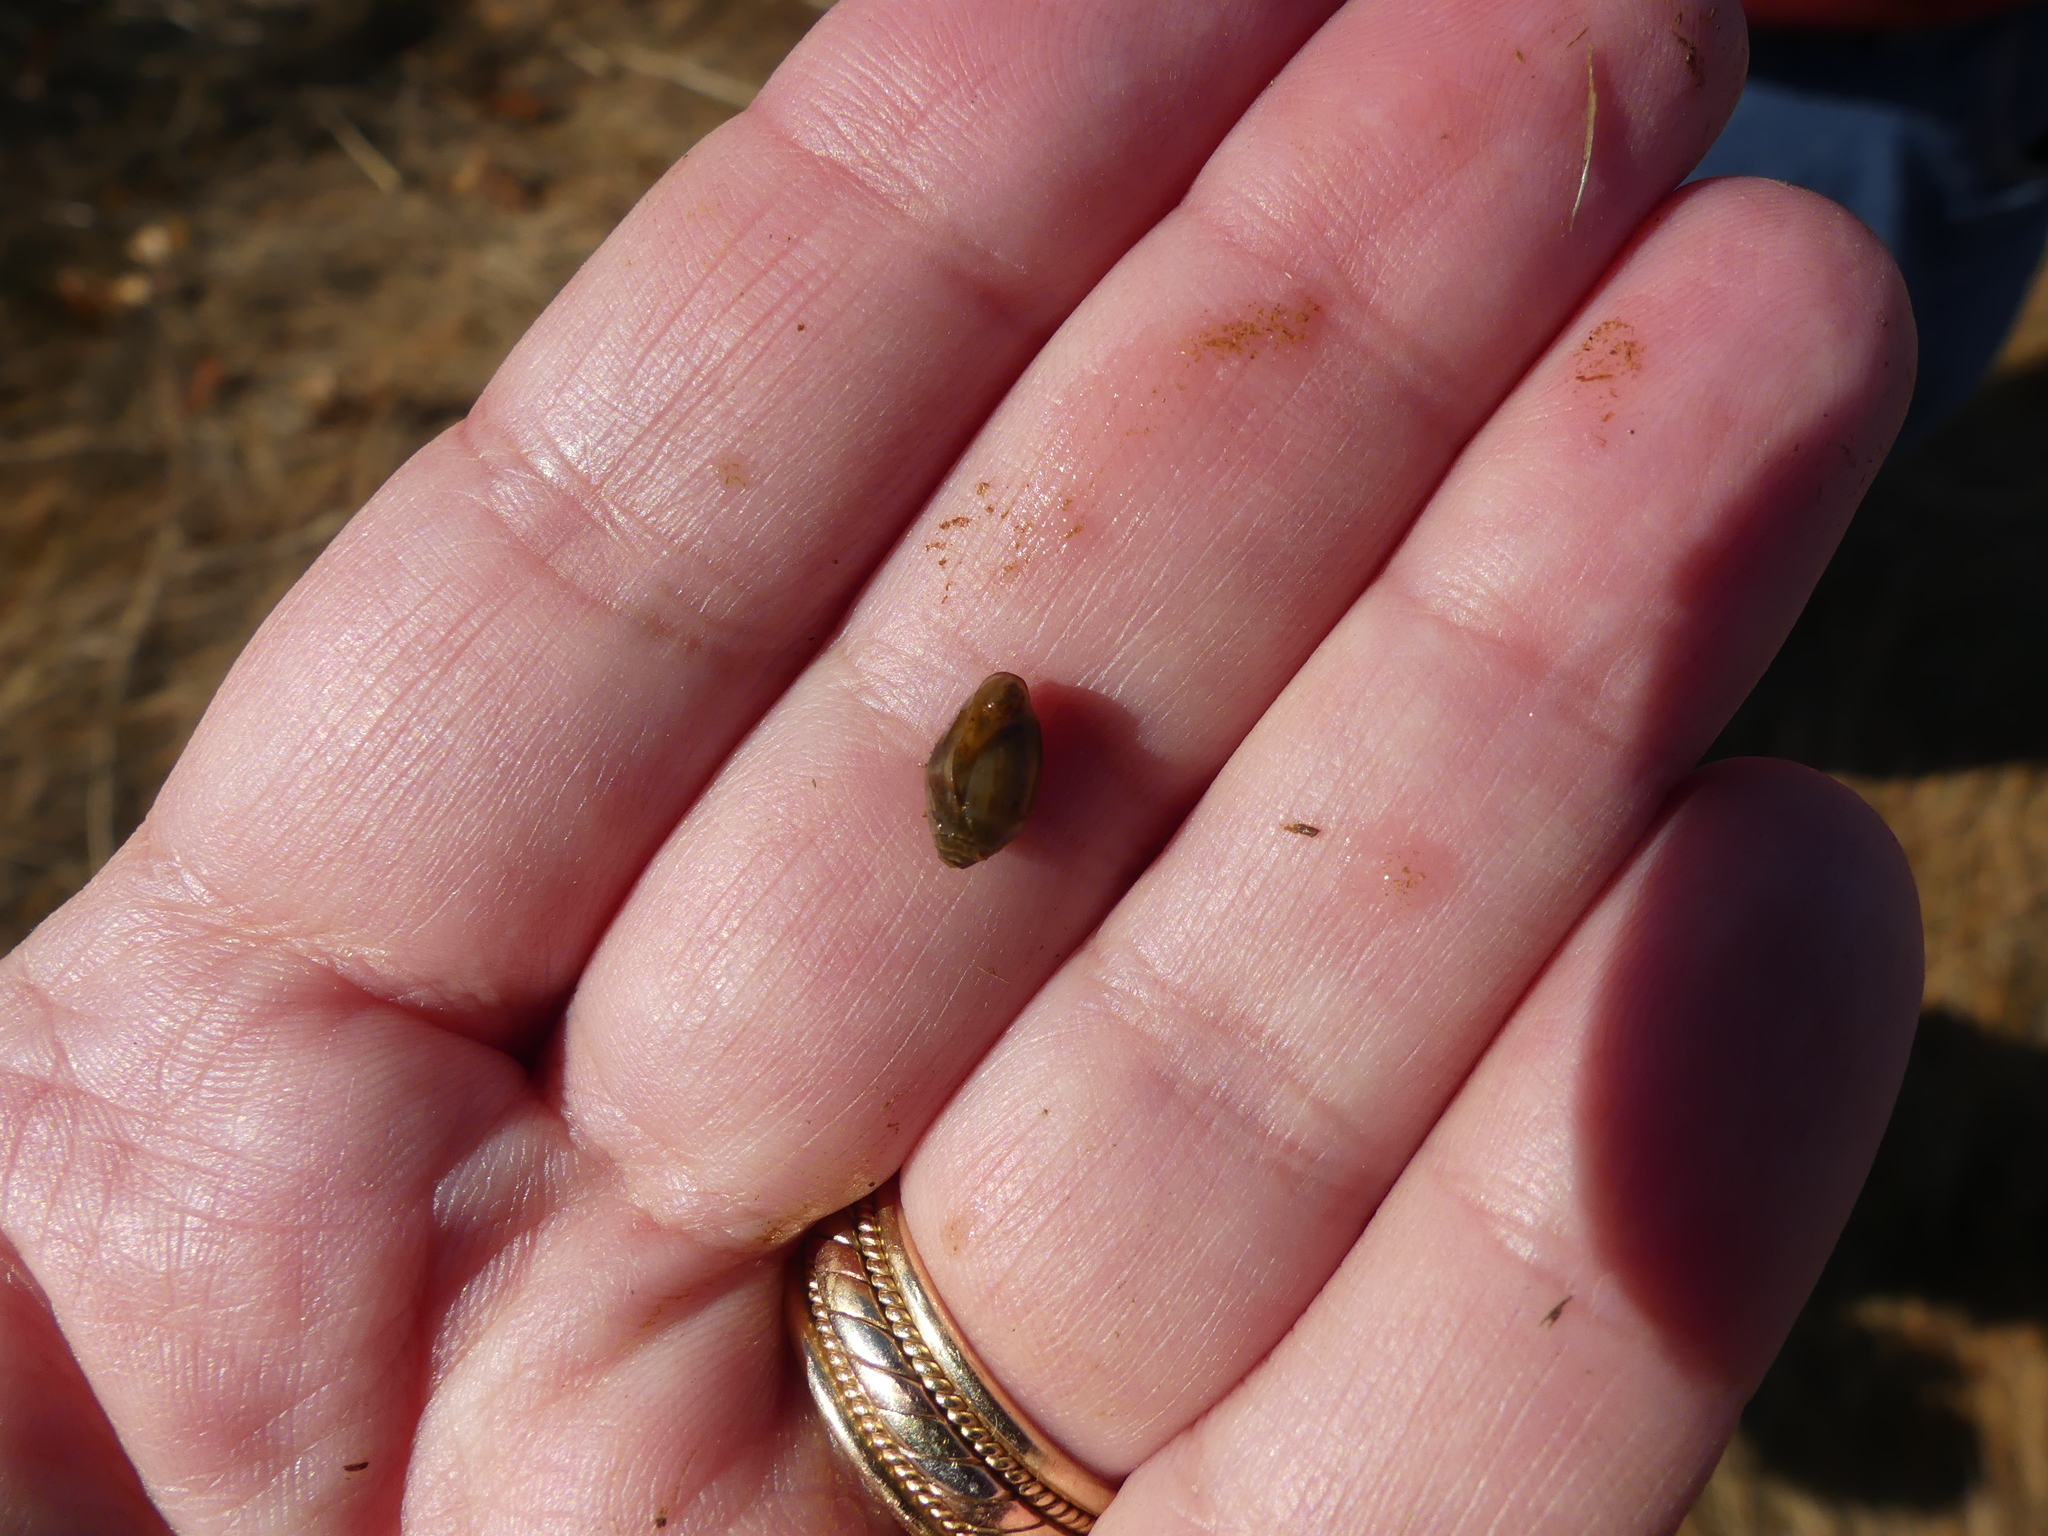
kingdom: Animalia
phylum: Mollusca
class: Gastropoda
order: Ellobiida
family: Ellobiidae
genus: Melampus
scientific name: Melampus bidentatus
